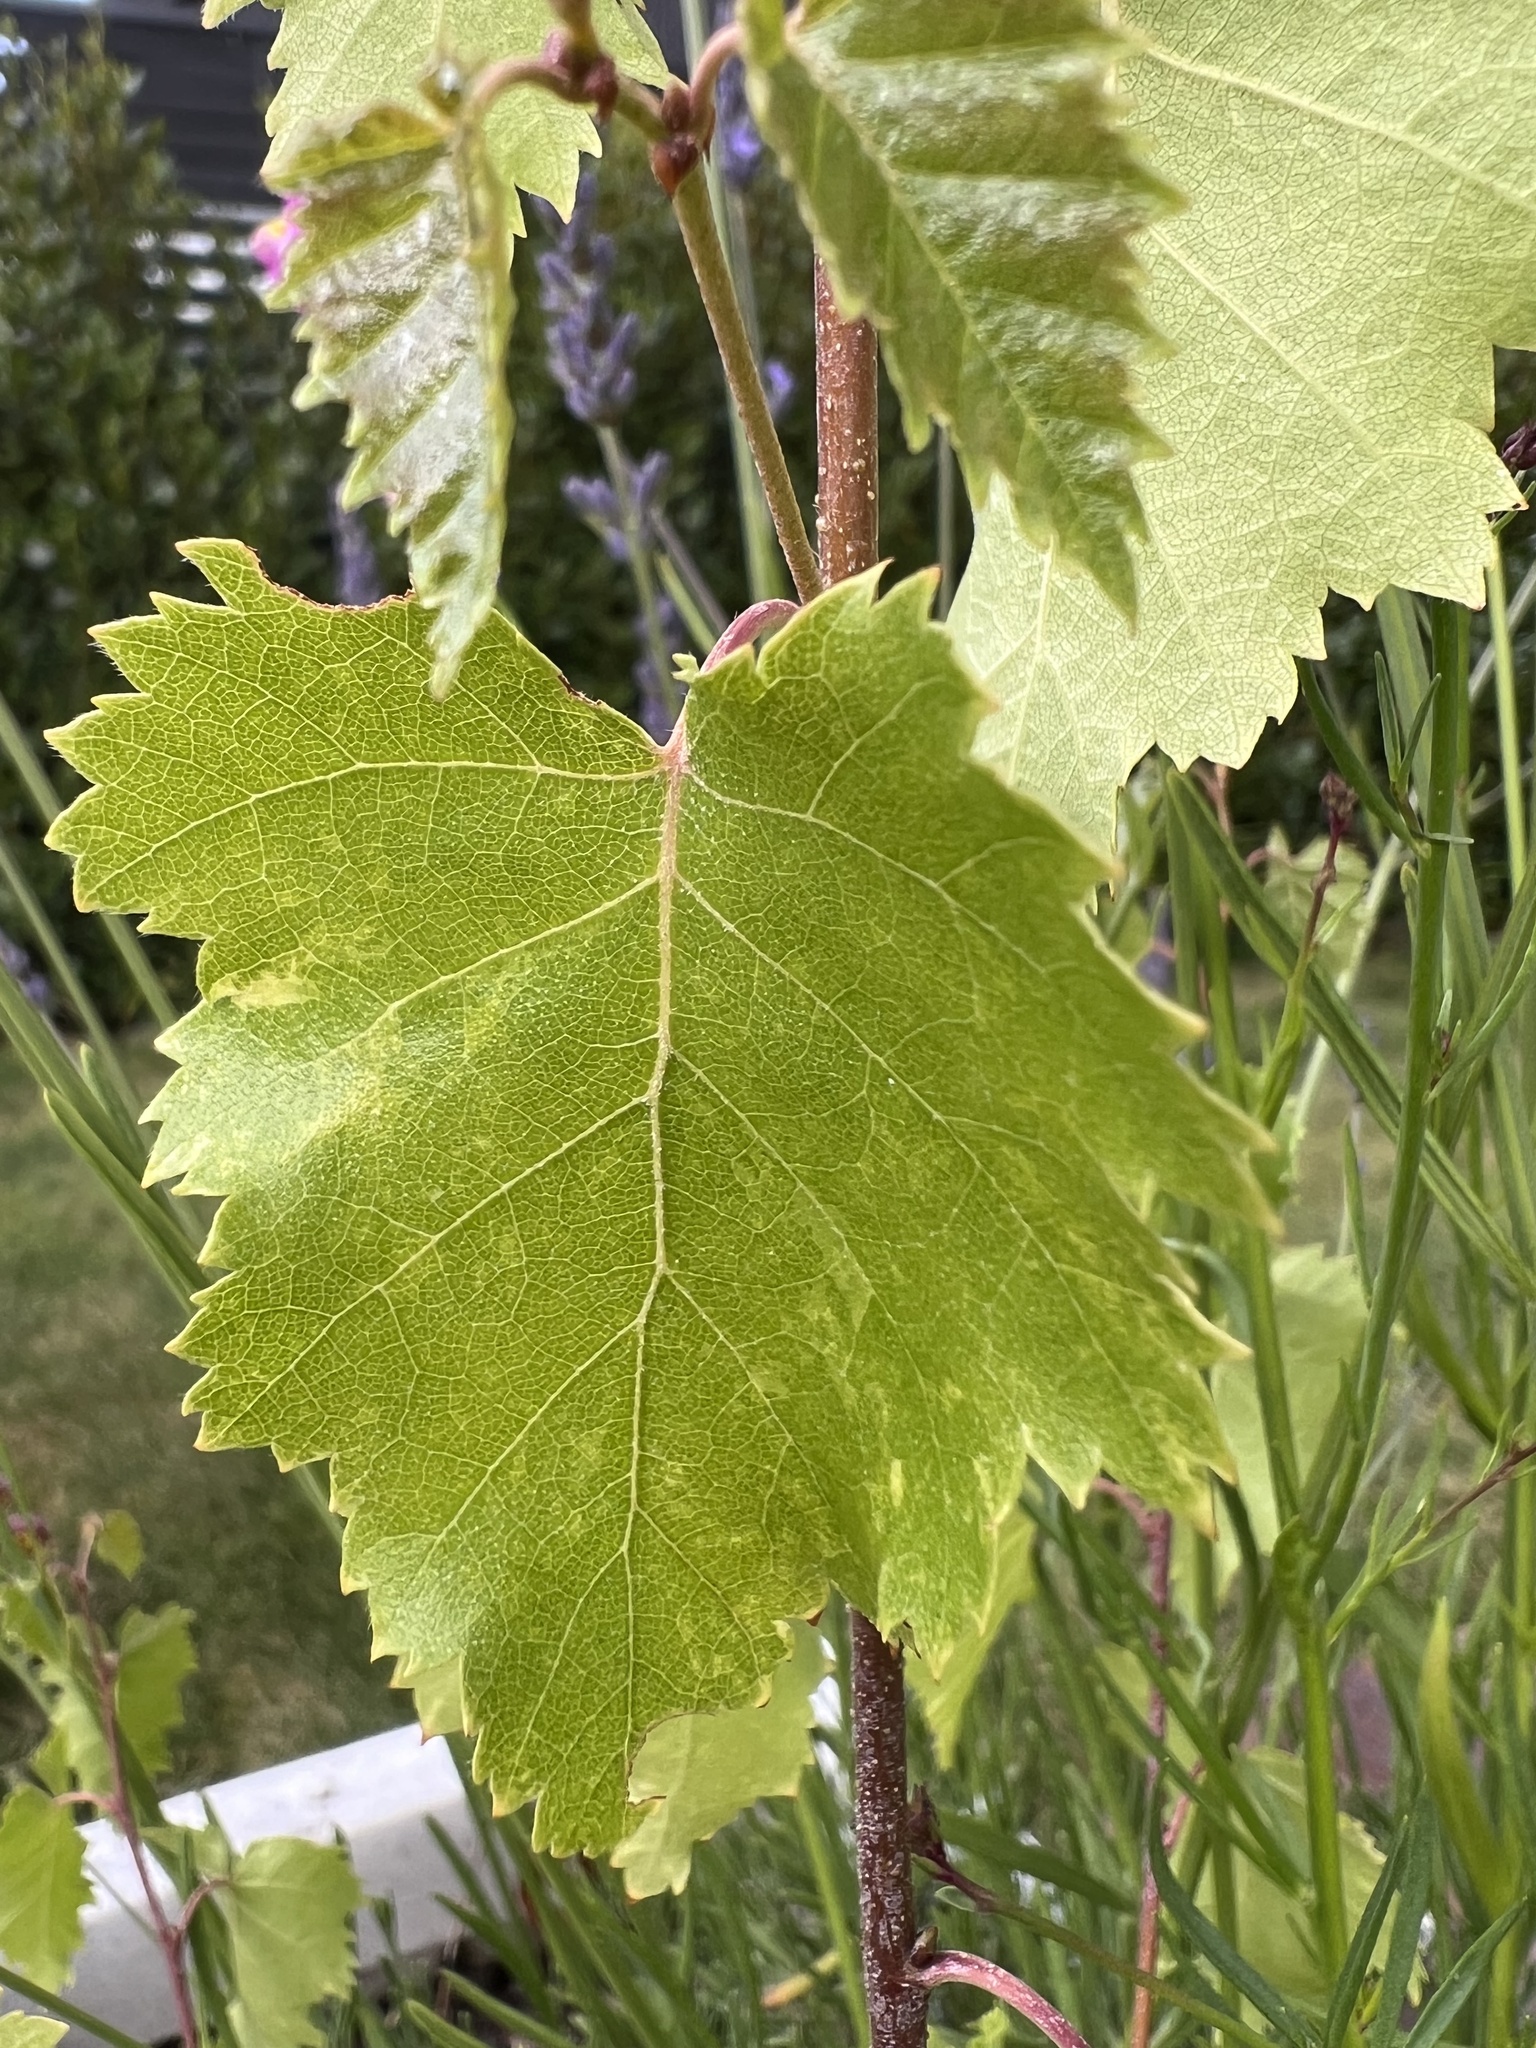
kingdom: Plantae
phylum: Tracheophyta
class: Magnoliopsida
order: Fagales
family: Betulaceae
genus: Betula
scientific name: Betula pendula
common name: Silver birch
